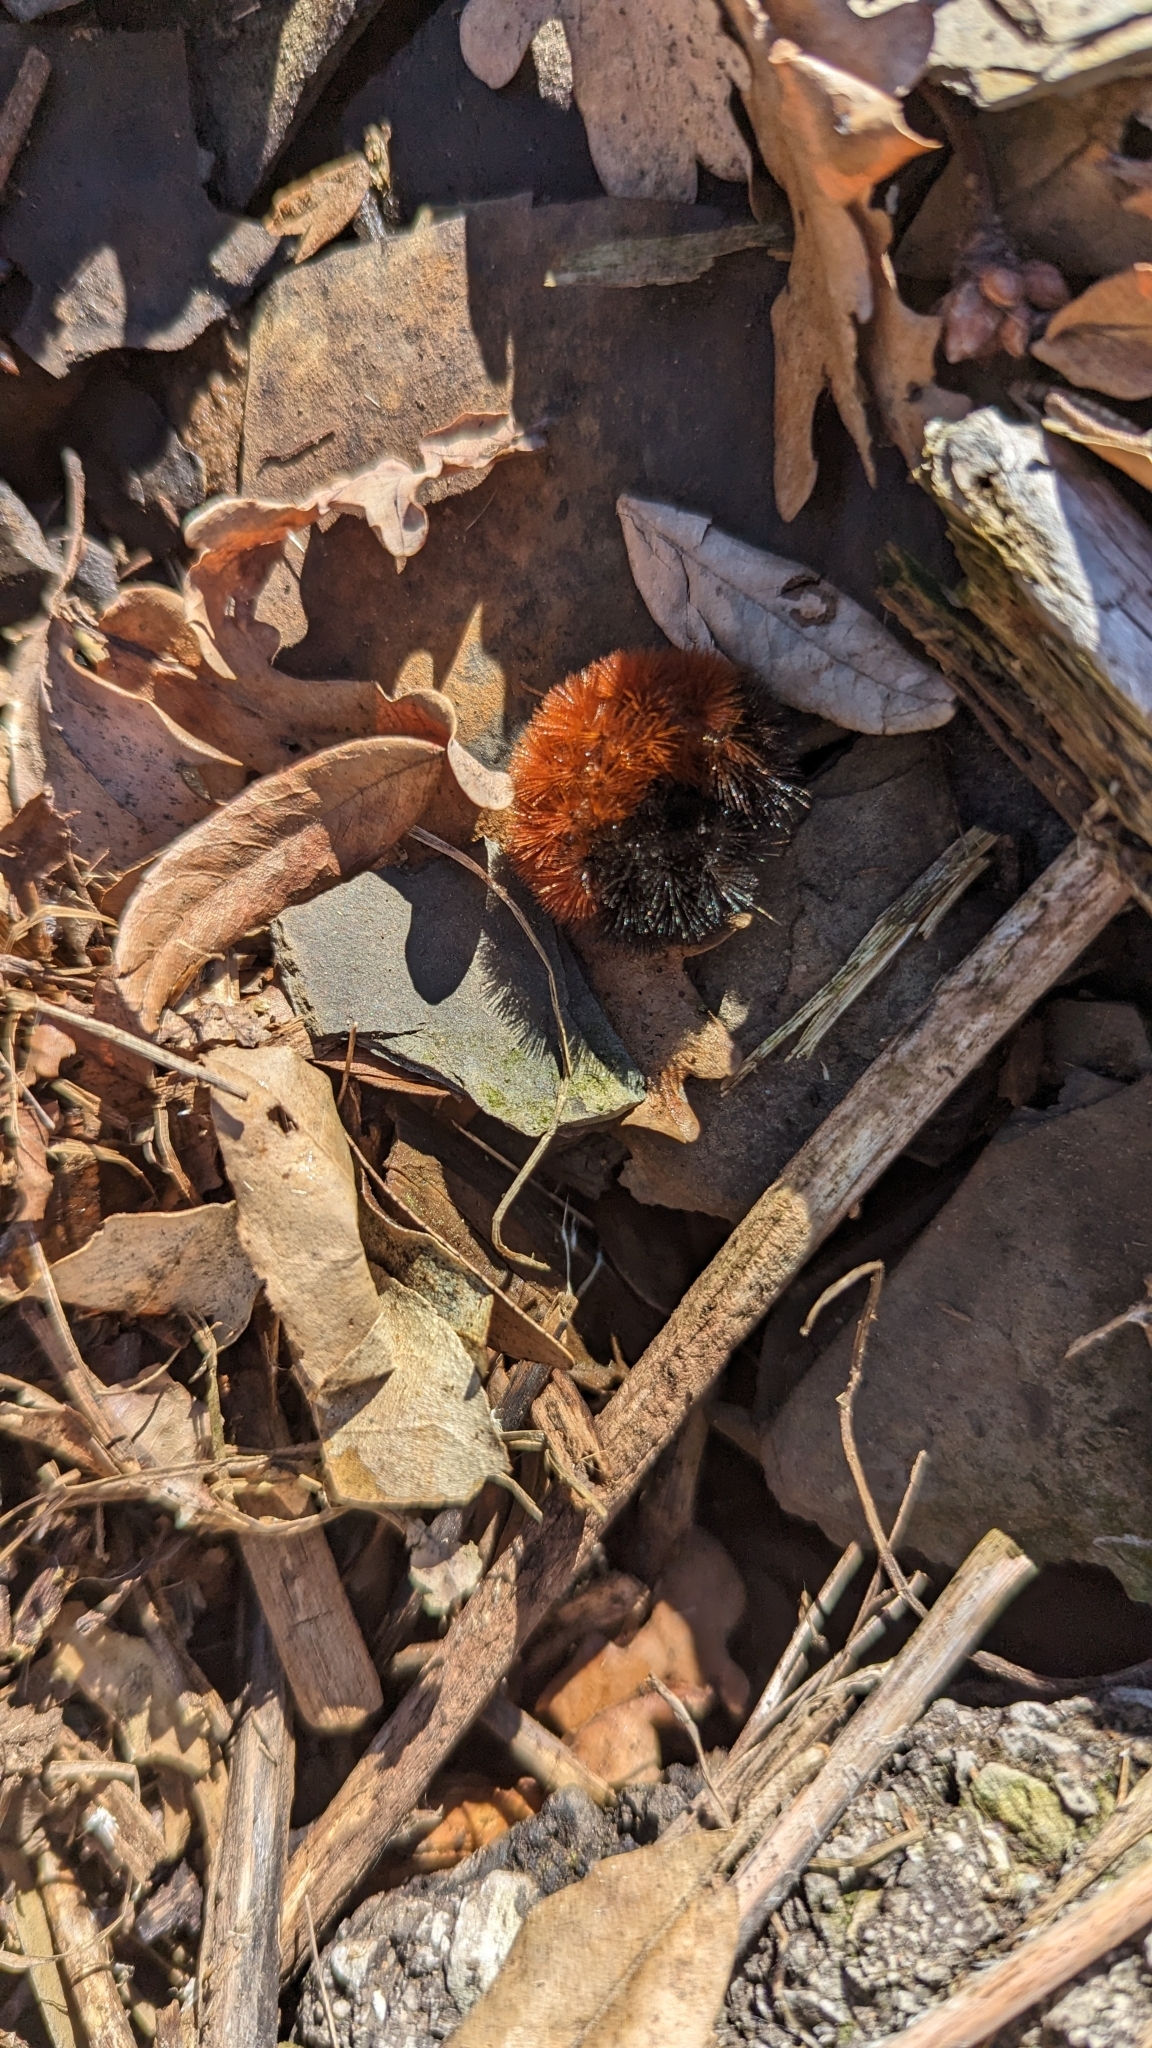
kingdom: Animalia
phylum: Arthropoda
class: Insecta
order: Lepidoptera
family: Erebidae
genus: Pyrrharctia
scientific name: Pyrrharctia isabella
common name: Isabella tiger moth
